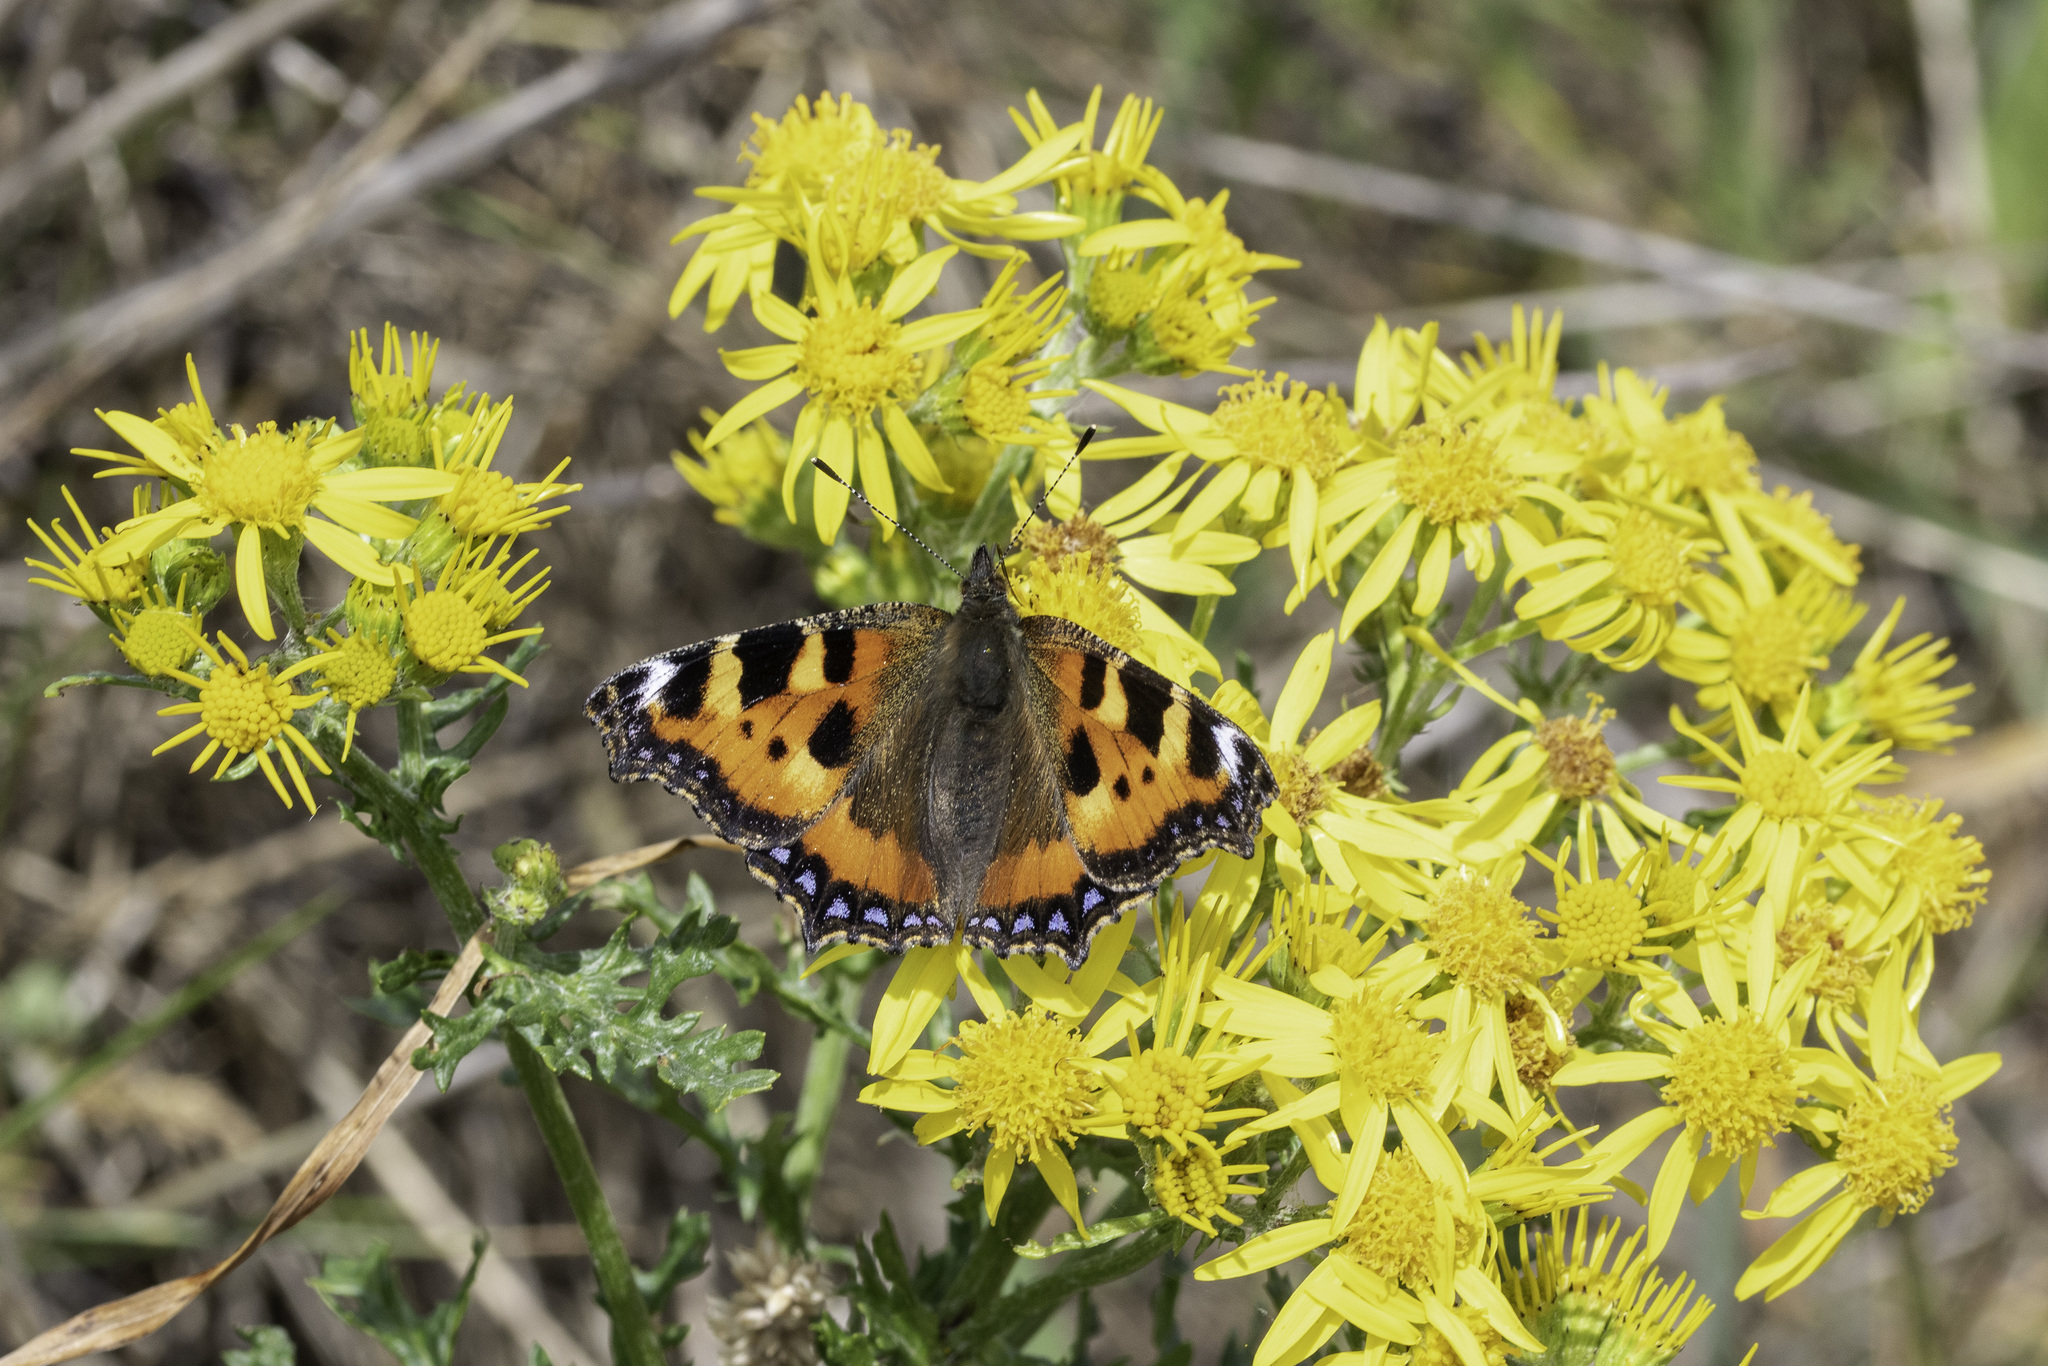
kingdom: Animalia
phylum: Arthropoda
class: Insecta
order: Lepidoptera
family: Nymphalidae
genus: Aglais
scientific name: Aglais urticae
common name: Small tortoiseshell
